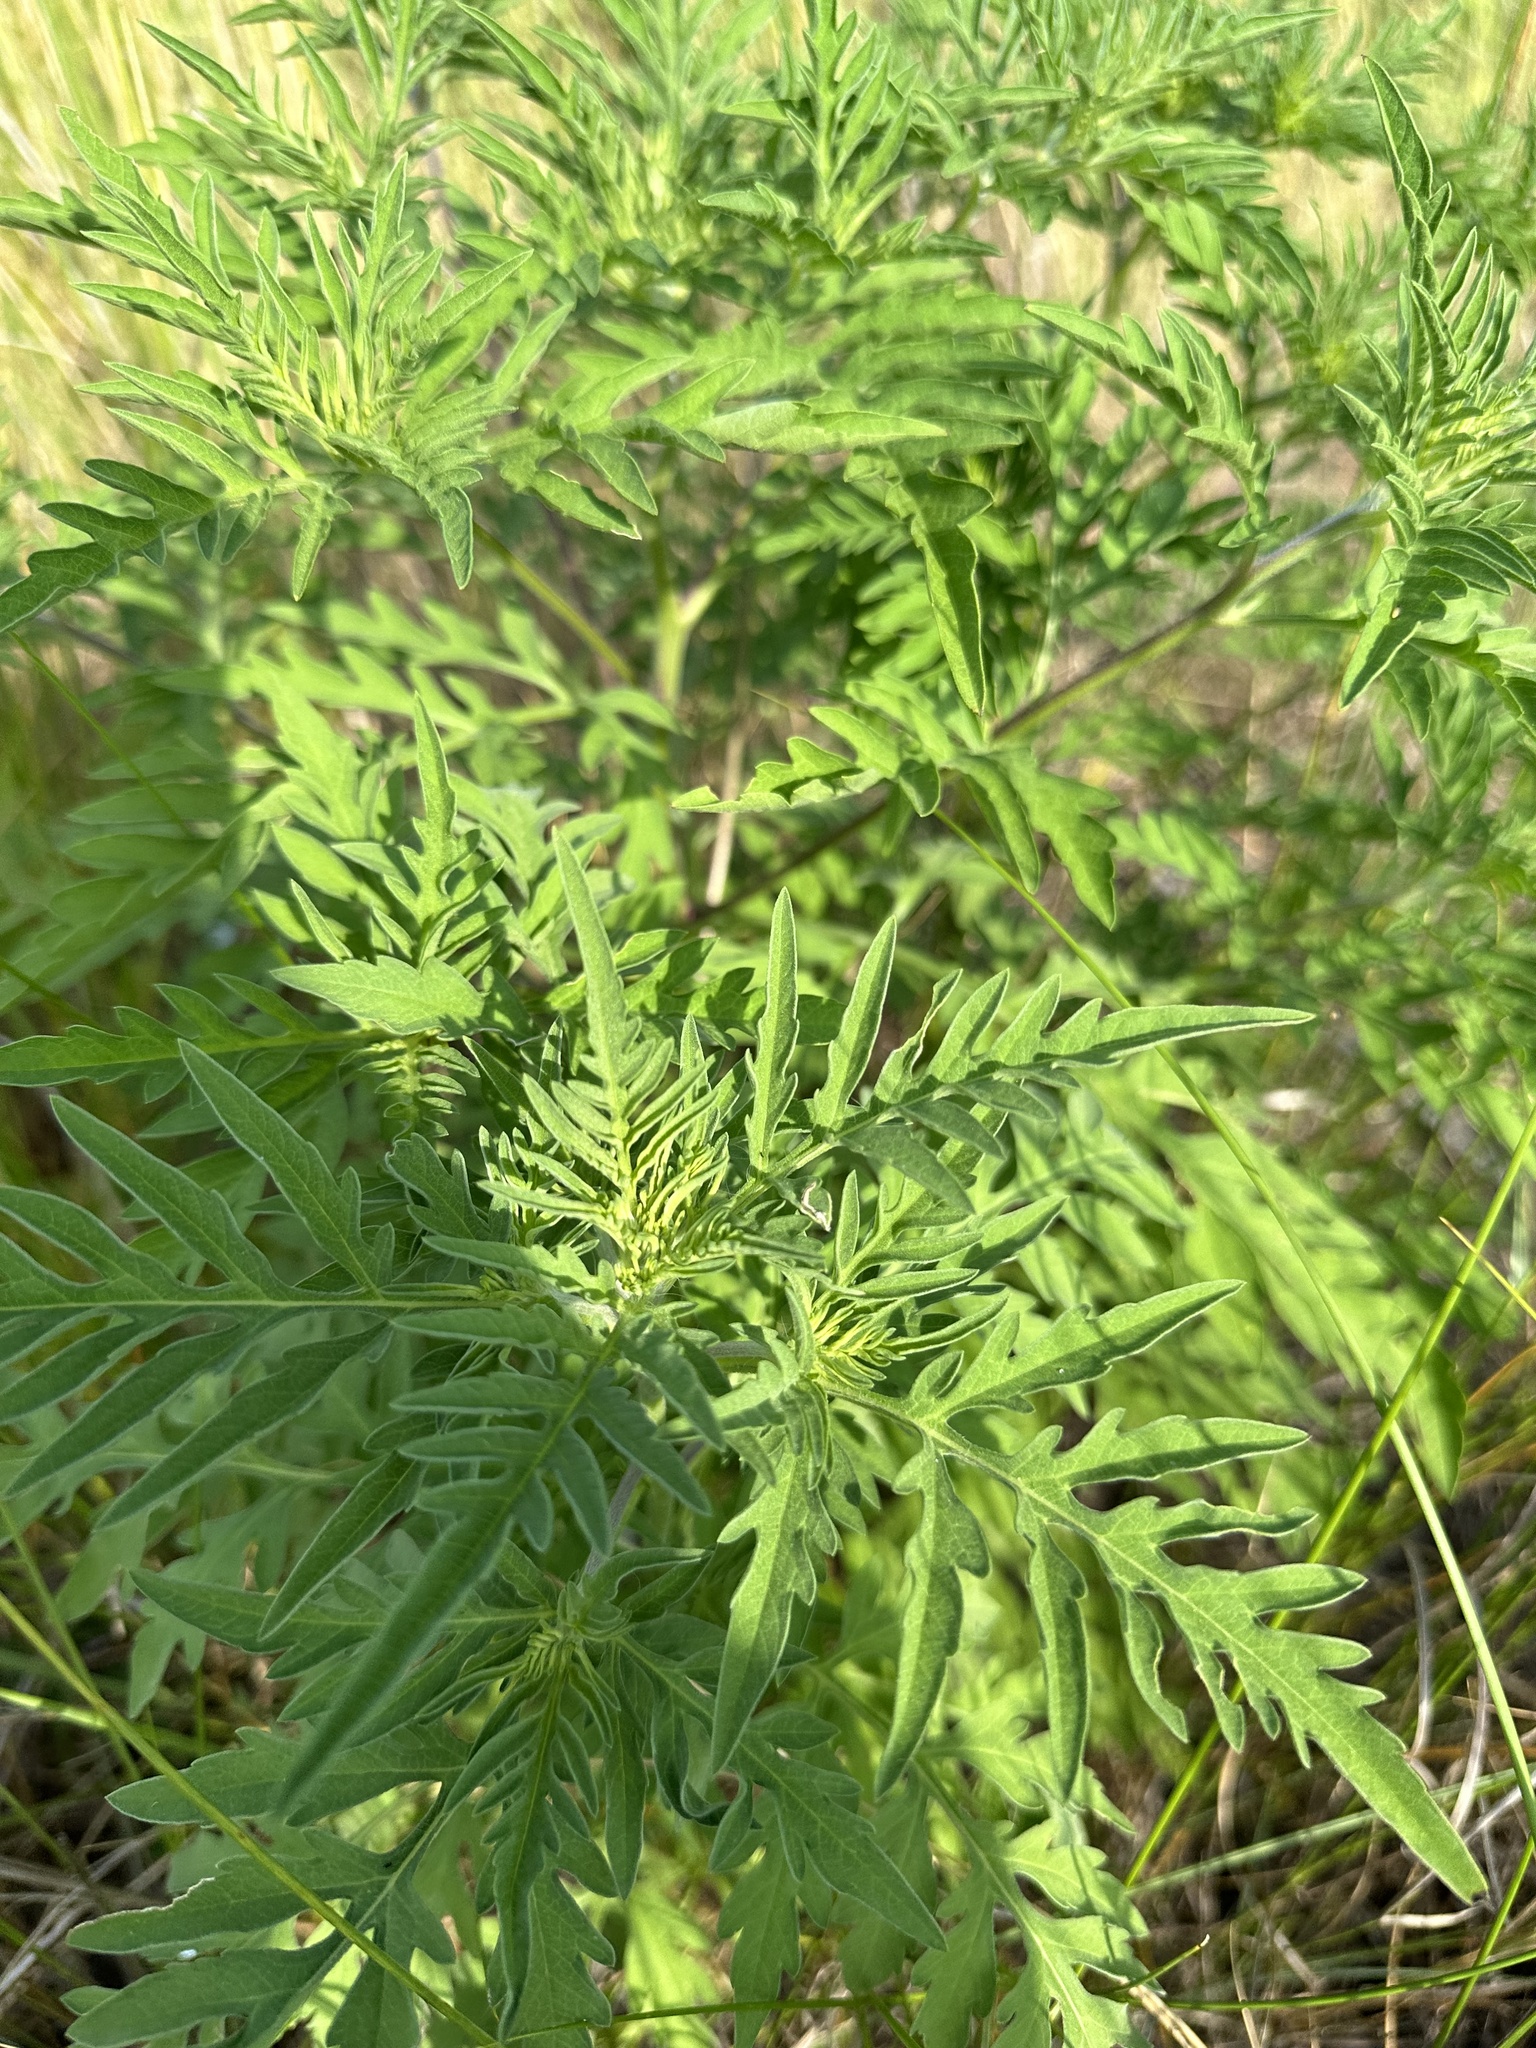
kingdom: Plantae
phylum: Tracheophyta
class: Magnoliopsida
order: Asterales
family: Asteraceae
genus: Ambrosia
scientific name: Ambrosia artemisiifolia
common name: Annual ragweed
